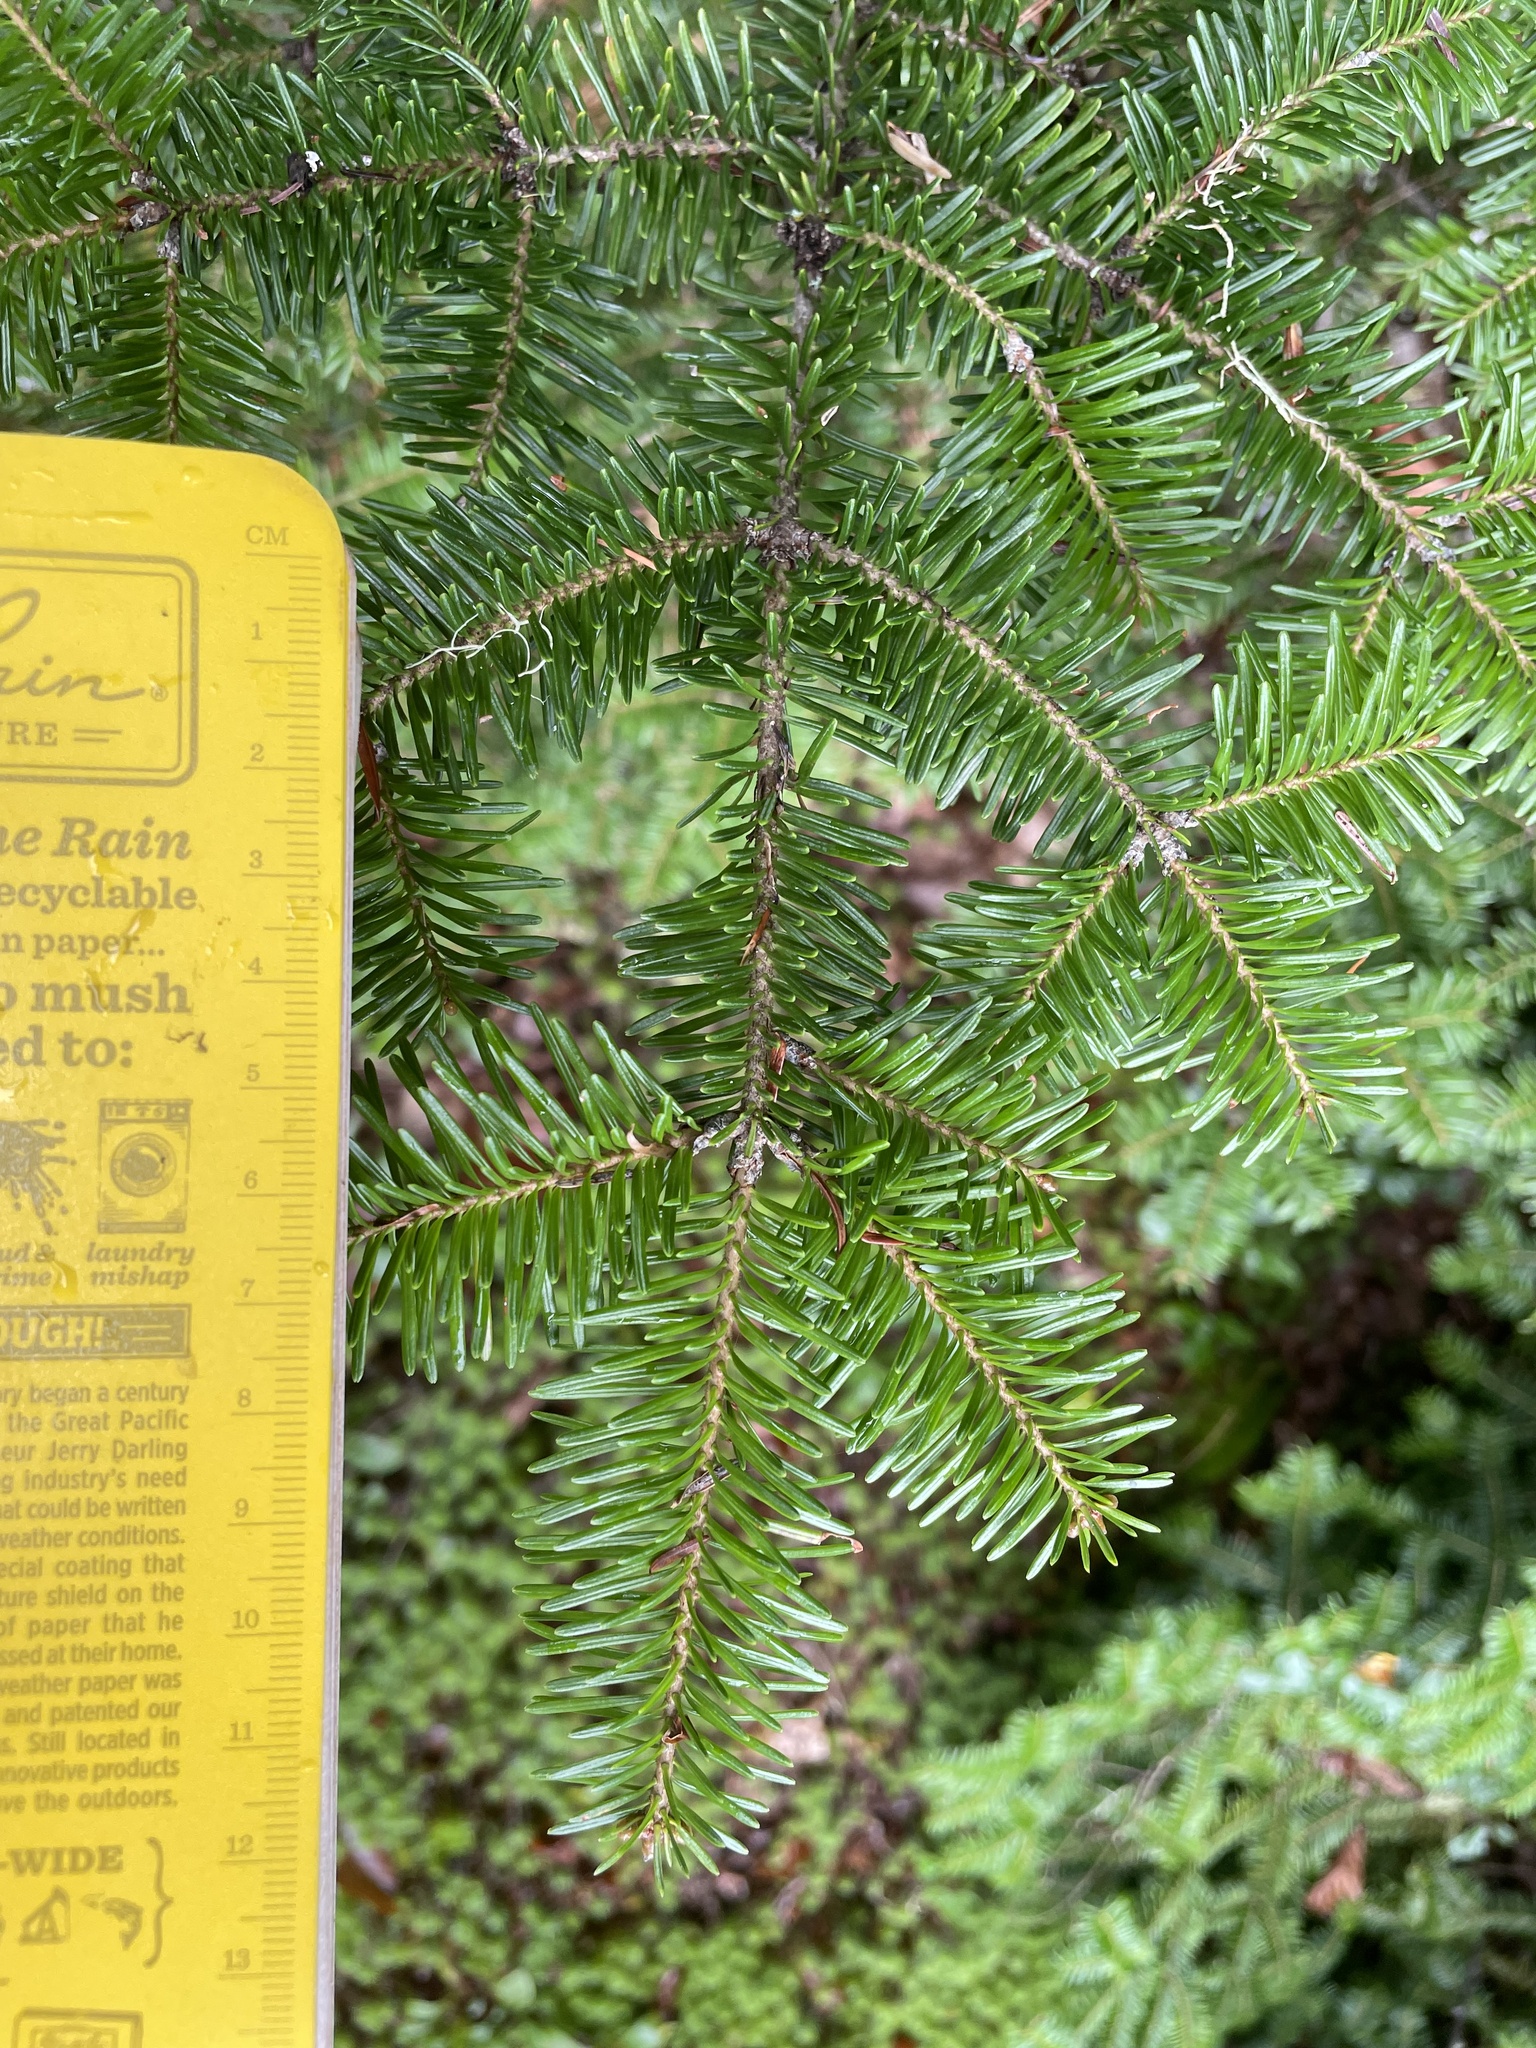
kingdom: Plantae
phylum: Tracheophyta
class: Pinopsida
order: Pinales
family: Pinaceae
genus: Abies
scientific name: Abies balsamea
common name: Balsam fir
